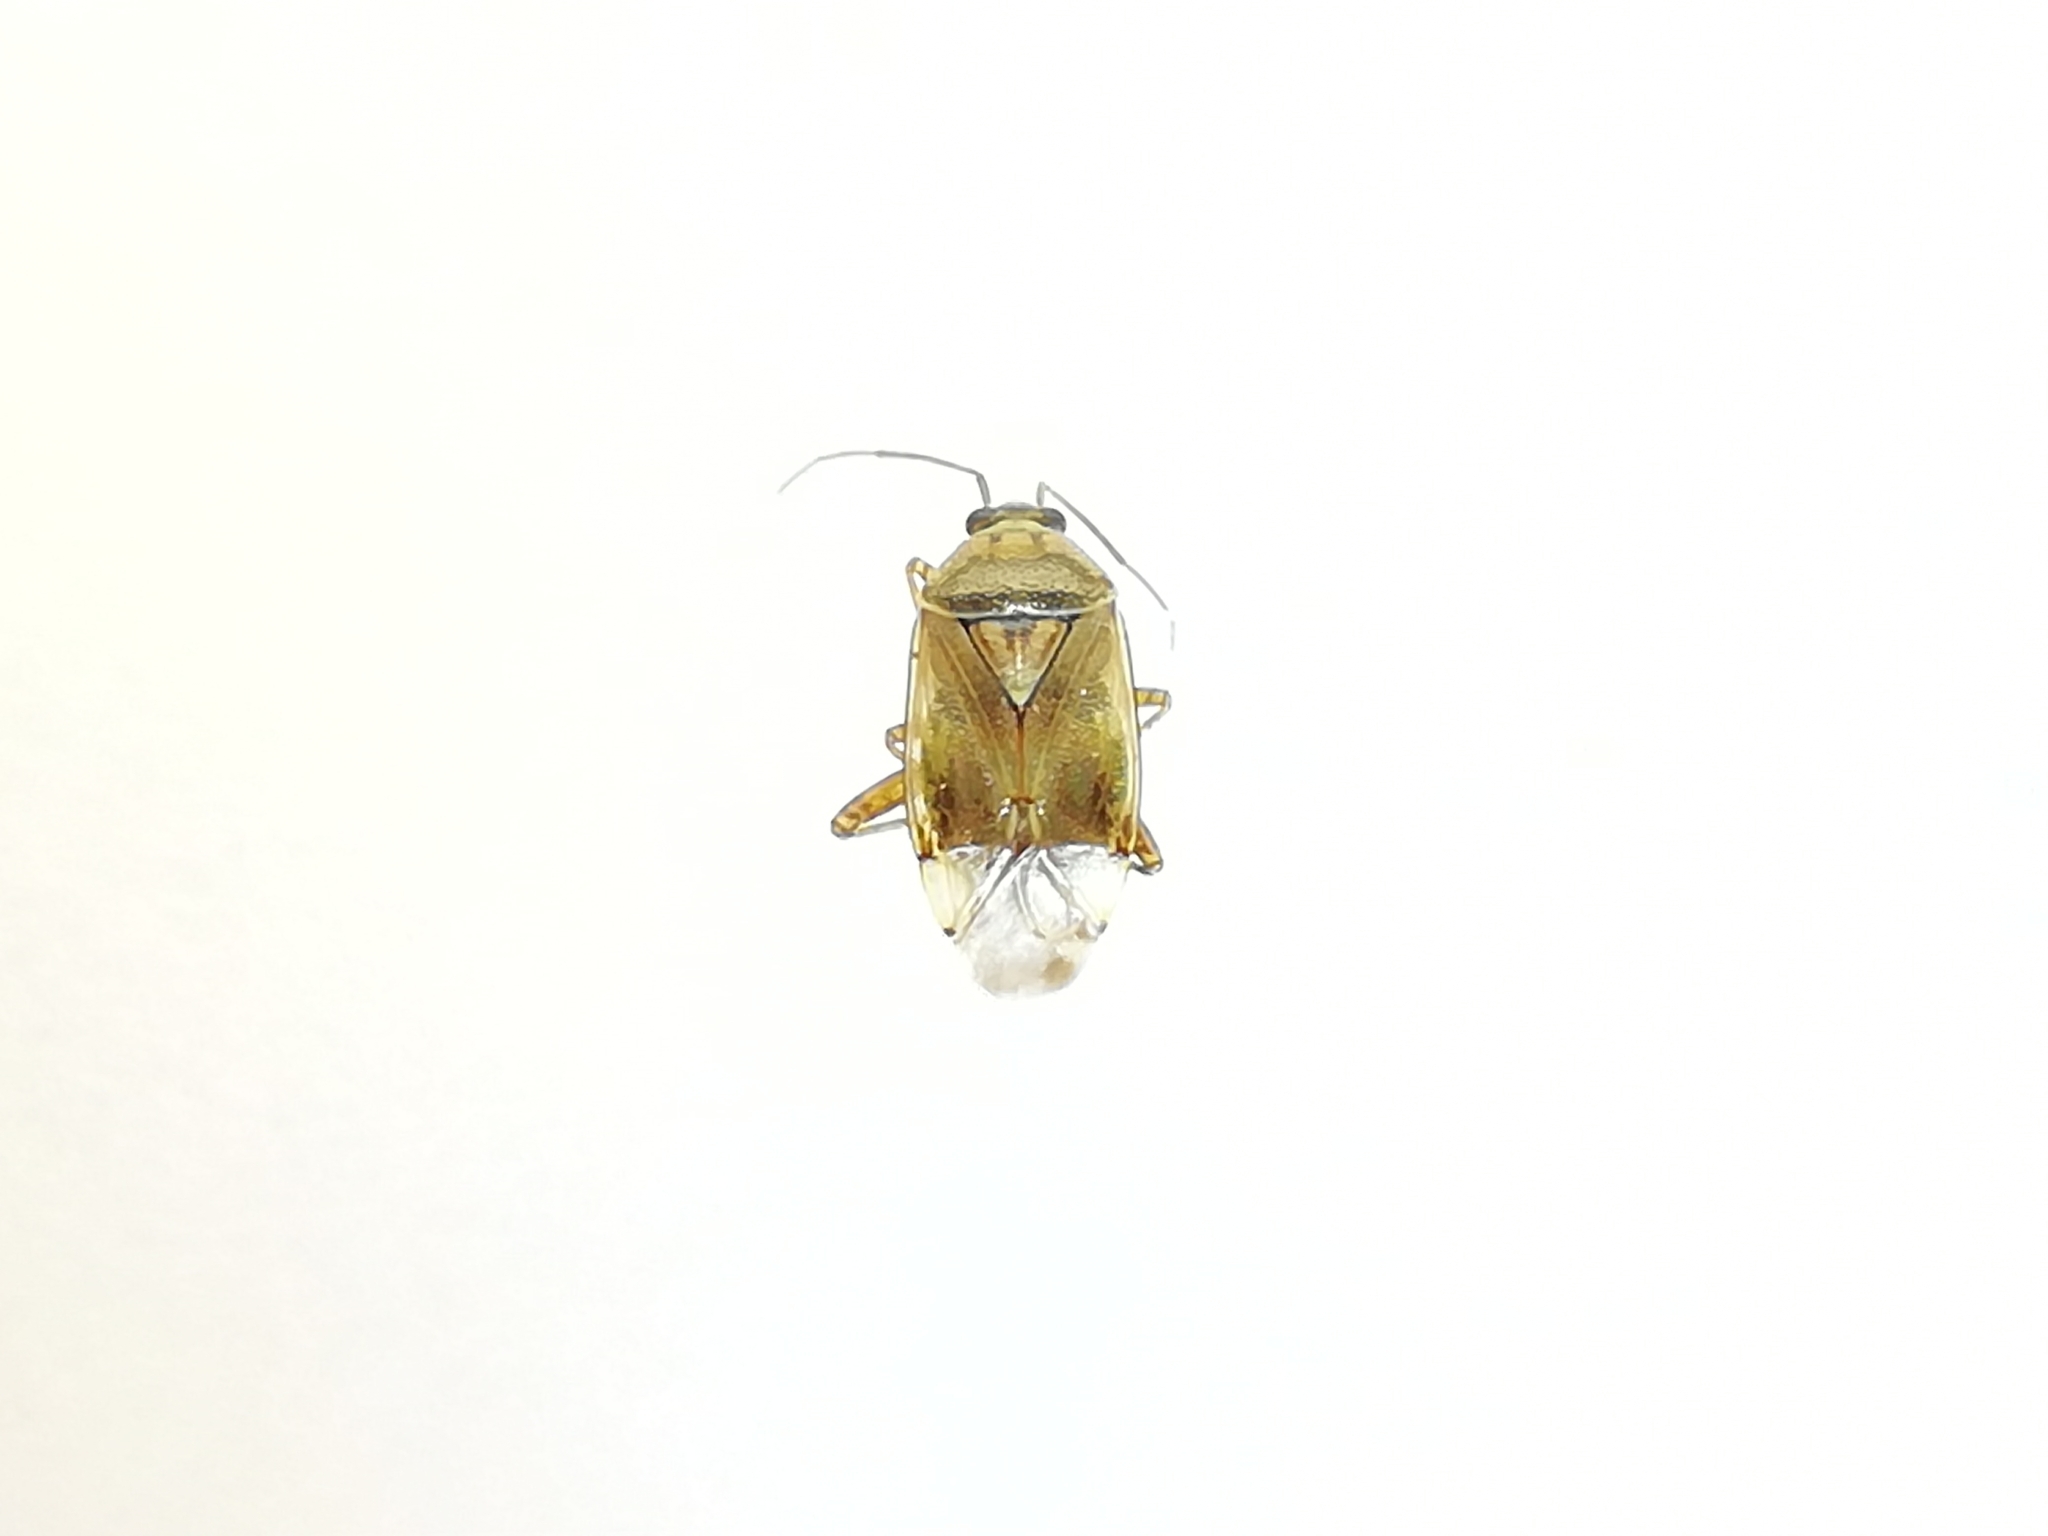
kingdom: Animalia
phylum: Arthropoda
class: Insecta
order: Hemiptera
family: Miridae
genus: Lygus
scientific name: Lygus pratensis
